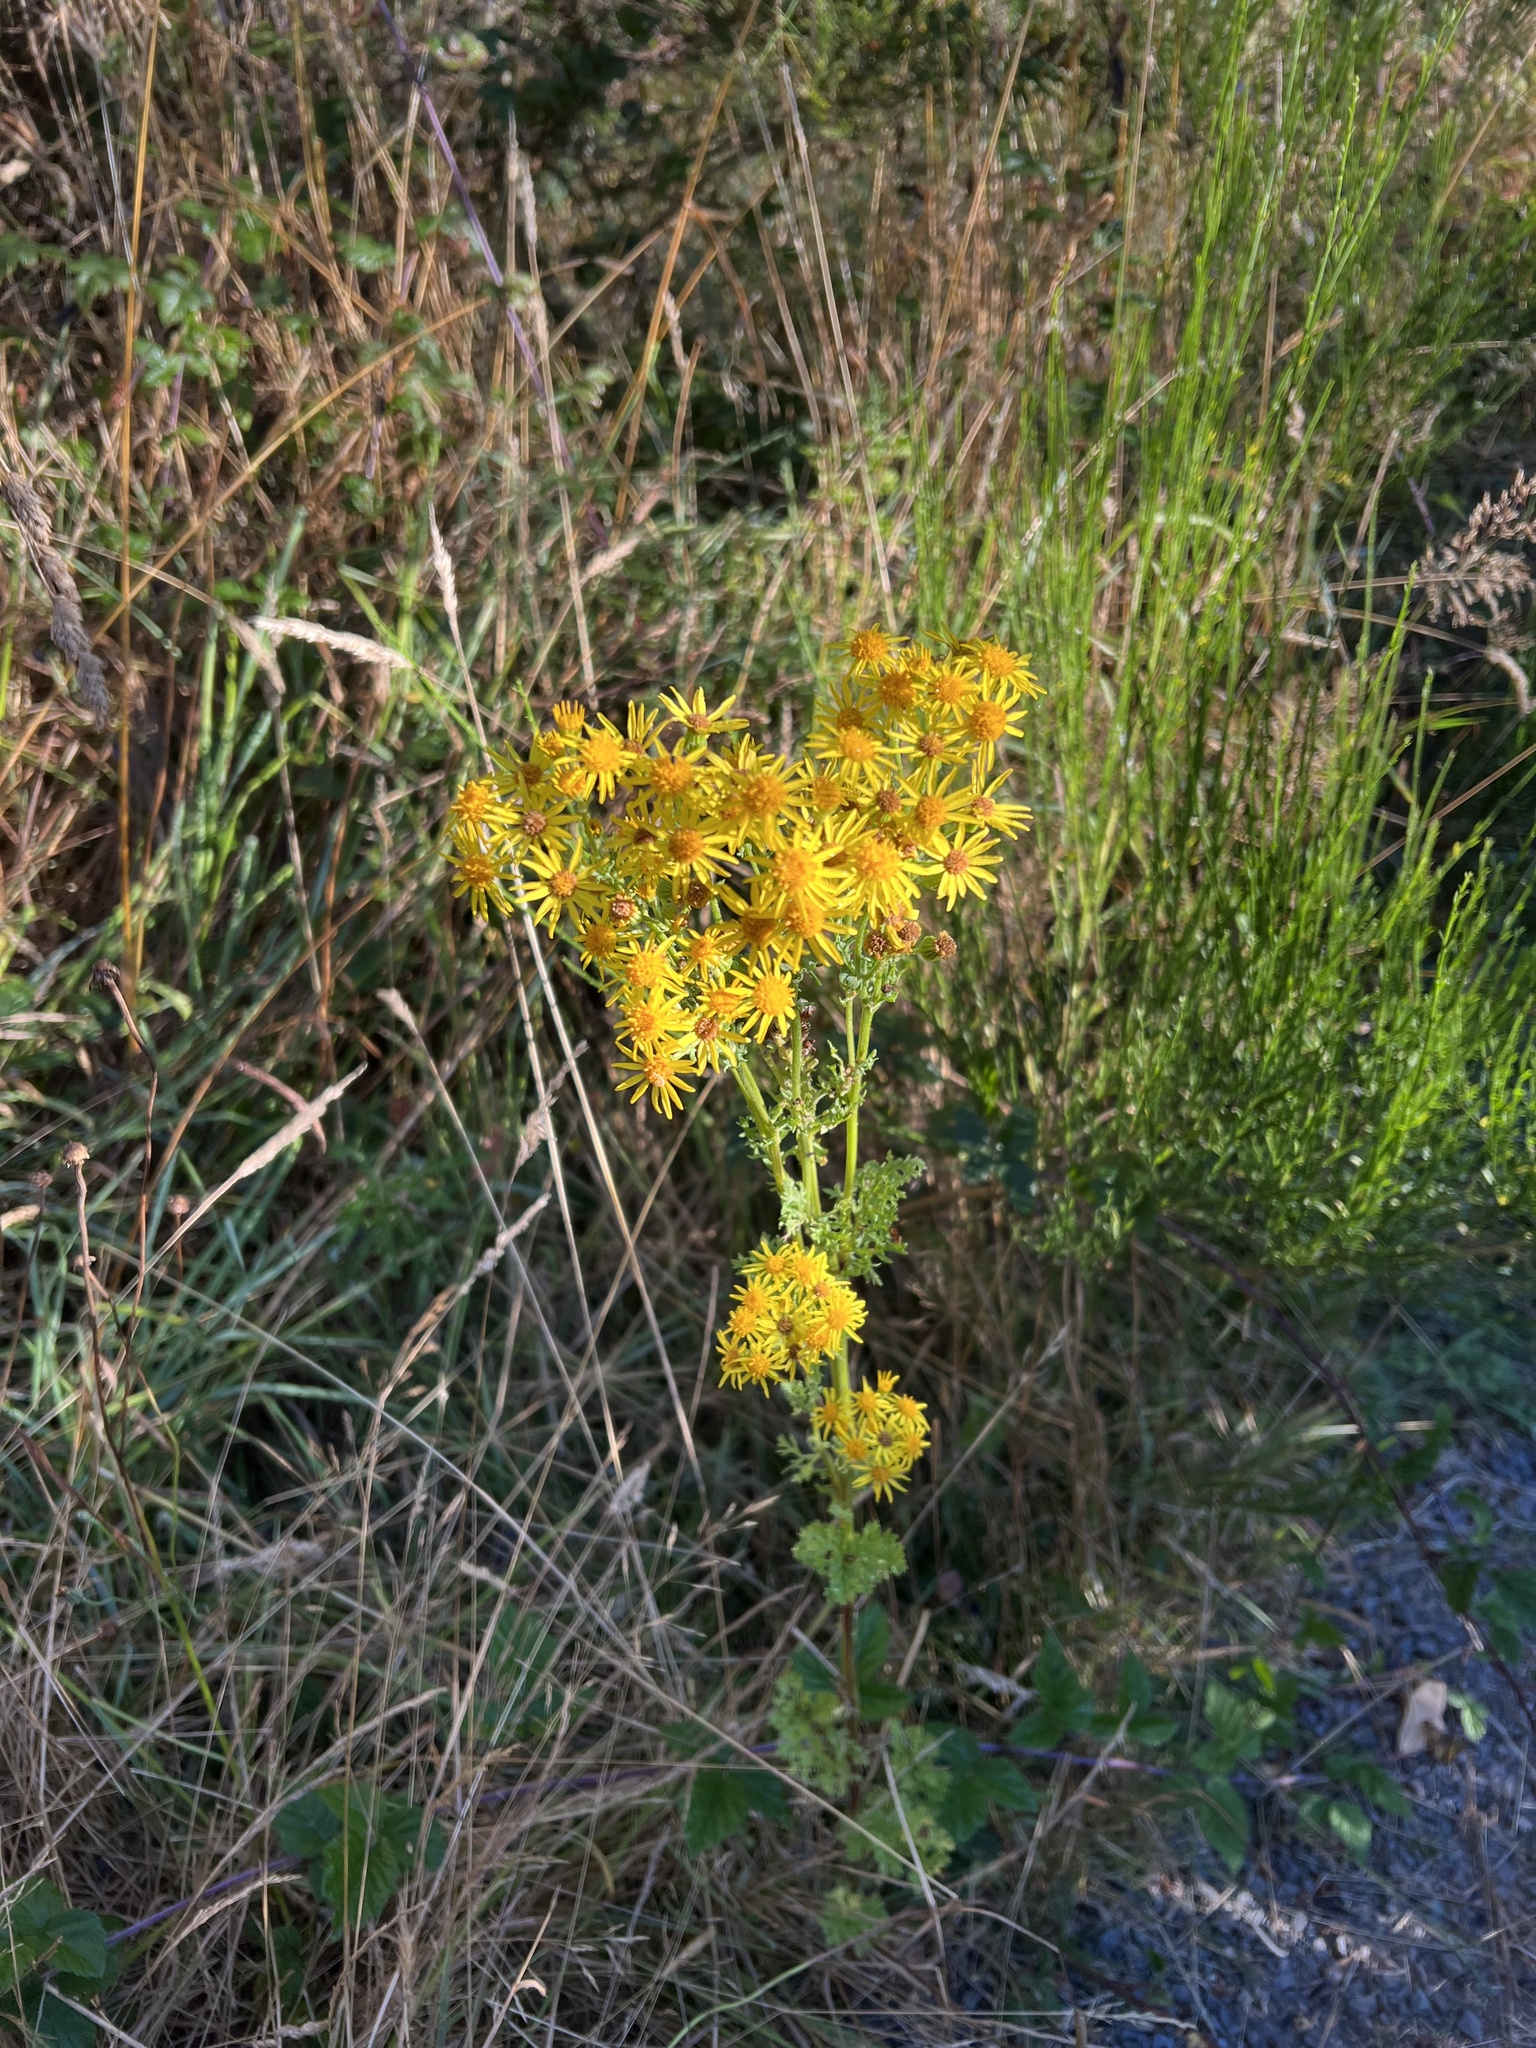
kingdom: Plantae
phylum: Tracheophyta
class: Magnoliopsida
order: Asterales
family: Asteraceae
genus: Jacobaea
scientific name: Jacobaea vulgaris
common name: Stinking willie
